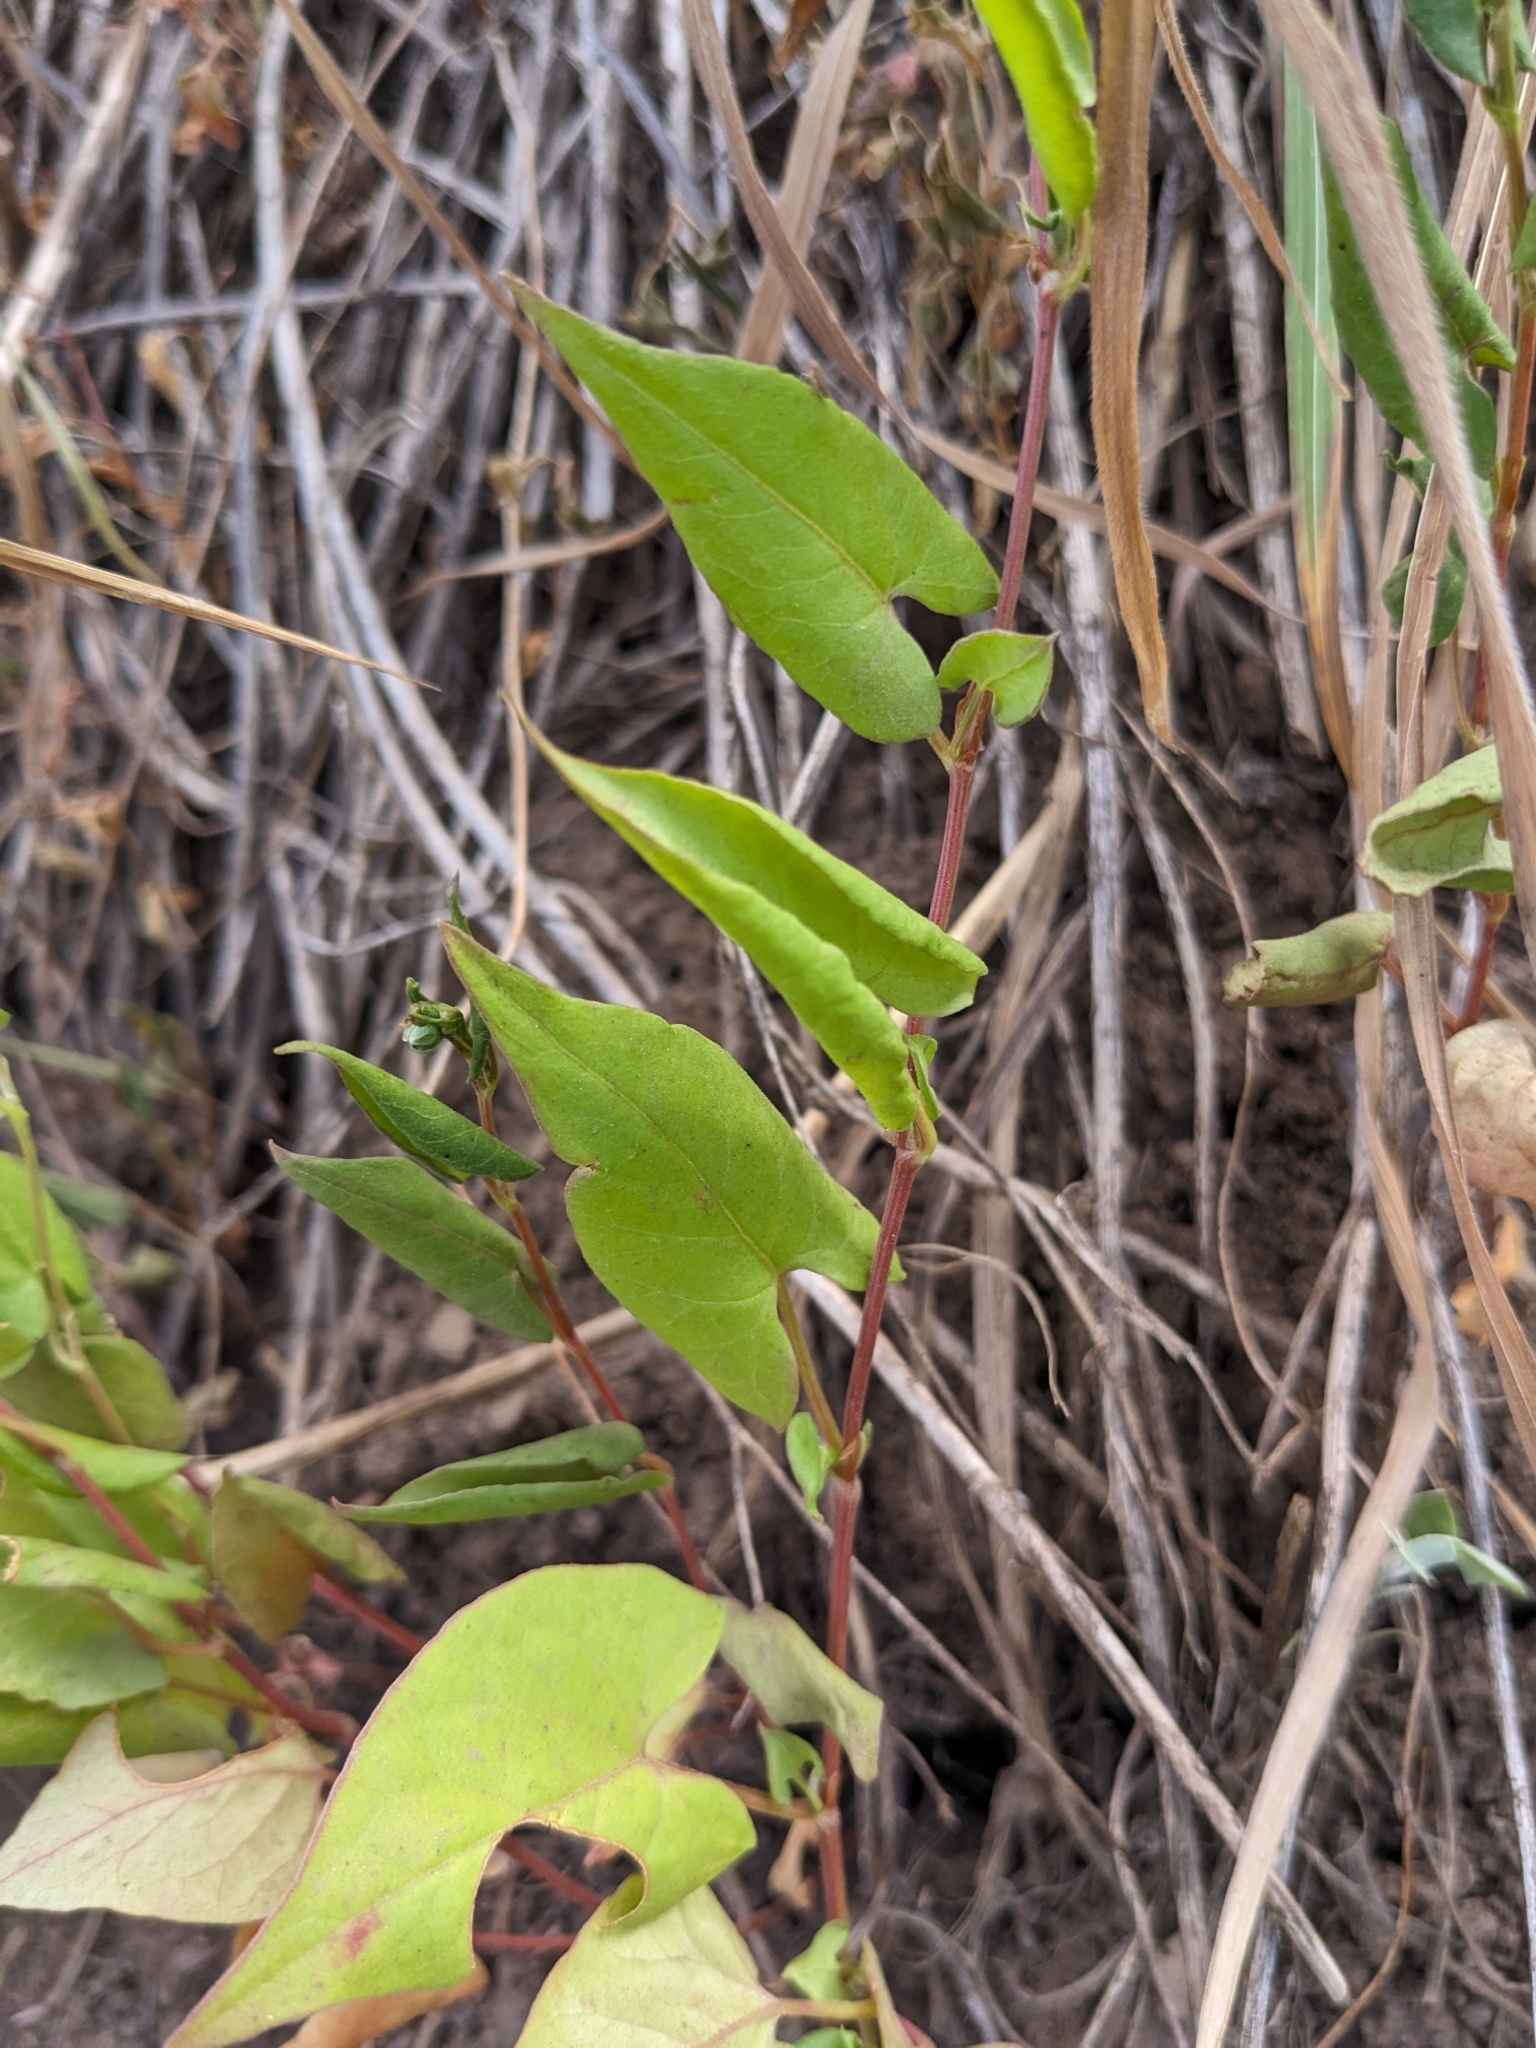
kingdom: Plantae
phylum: Tracheophyta
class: Magnoliopsida
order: Caryophyllales
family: Polygonaceae
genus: Fallopia
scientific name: Fallopia convolvulus
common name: Black bindweed
